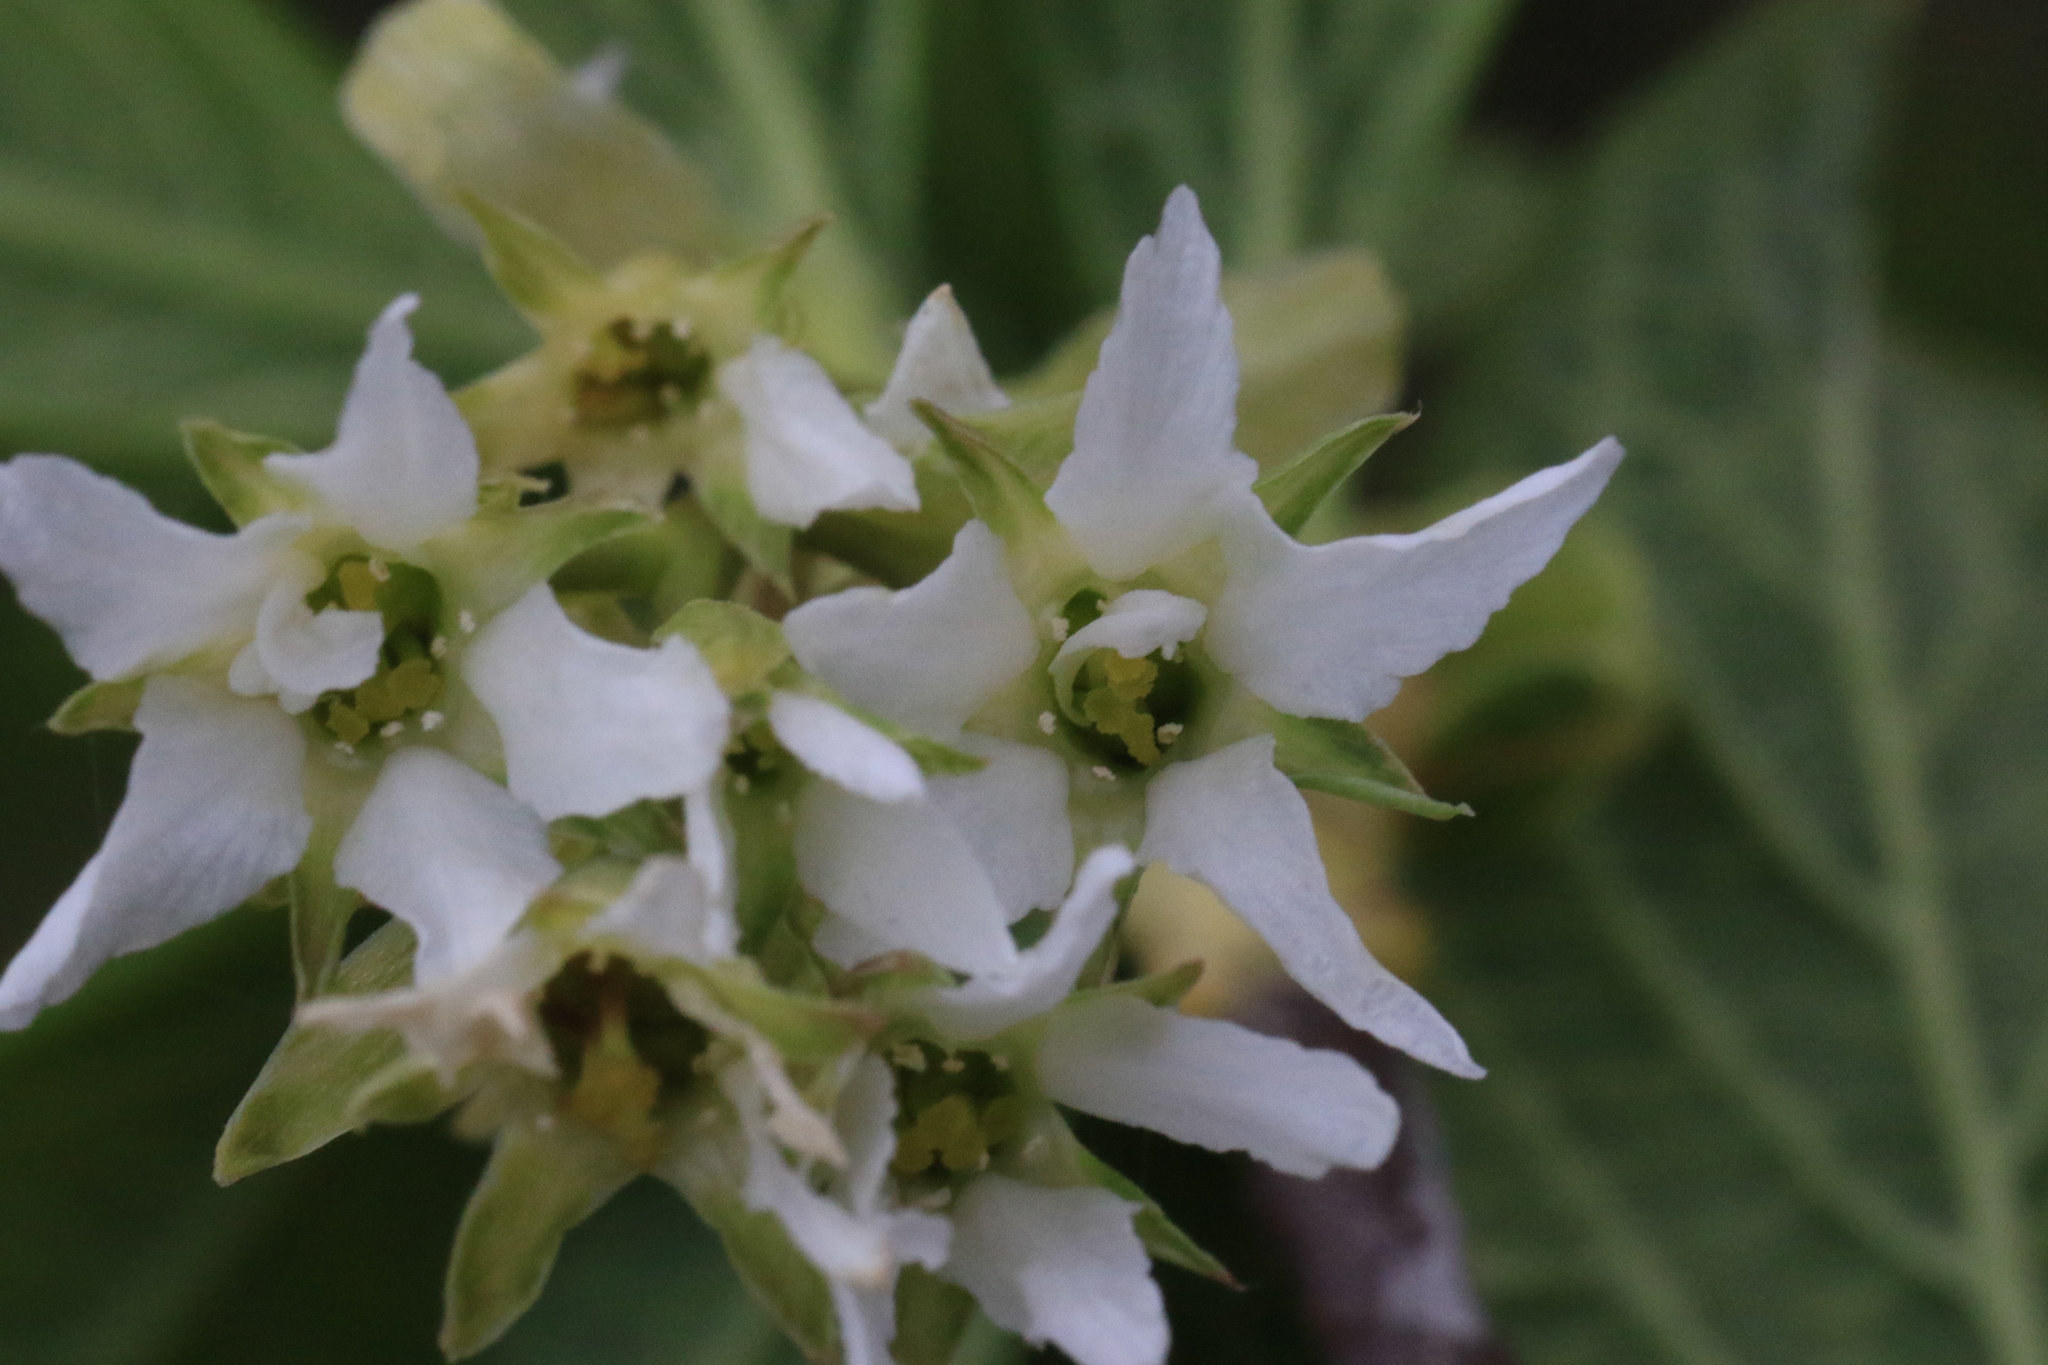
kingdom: Plantae
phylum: Tracheophyta
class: Magnoliopsida
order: Rosales
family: Rosaceae
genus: Oemleria
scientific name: Oemleria cerasiformis
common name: Osoberry
